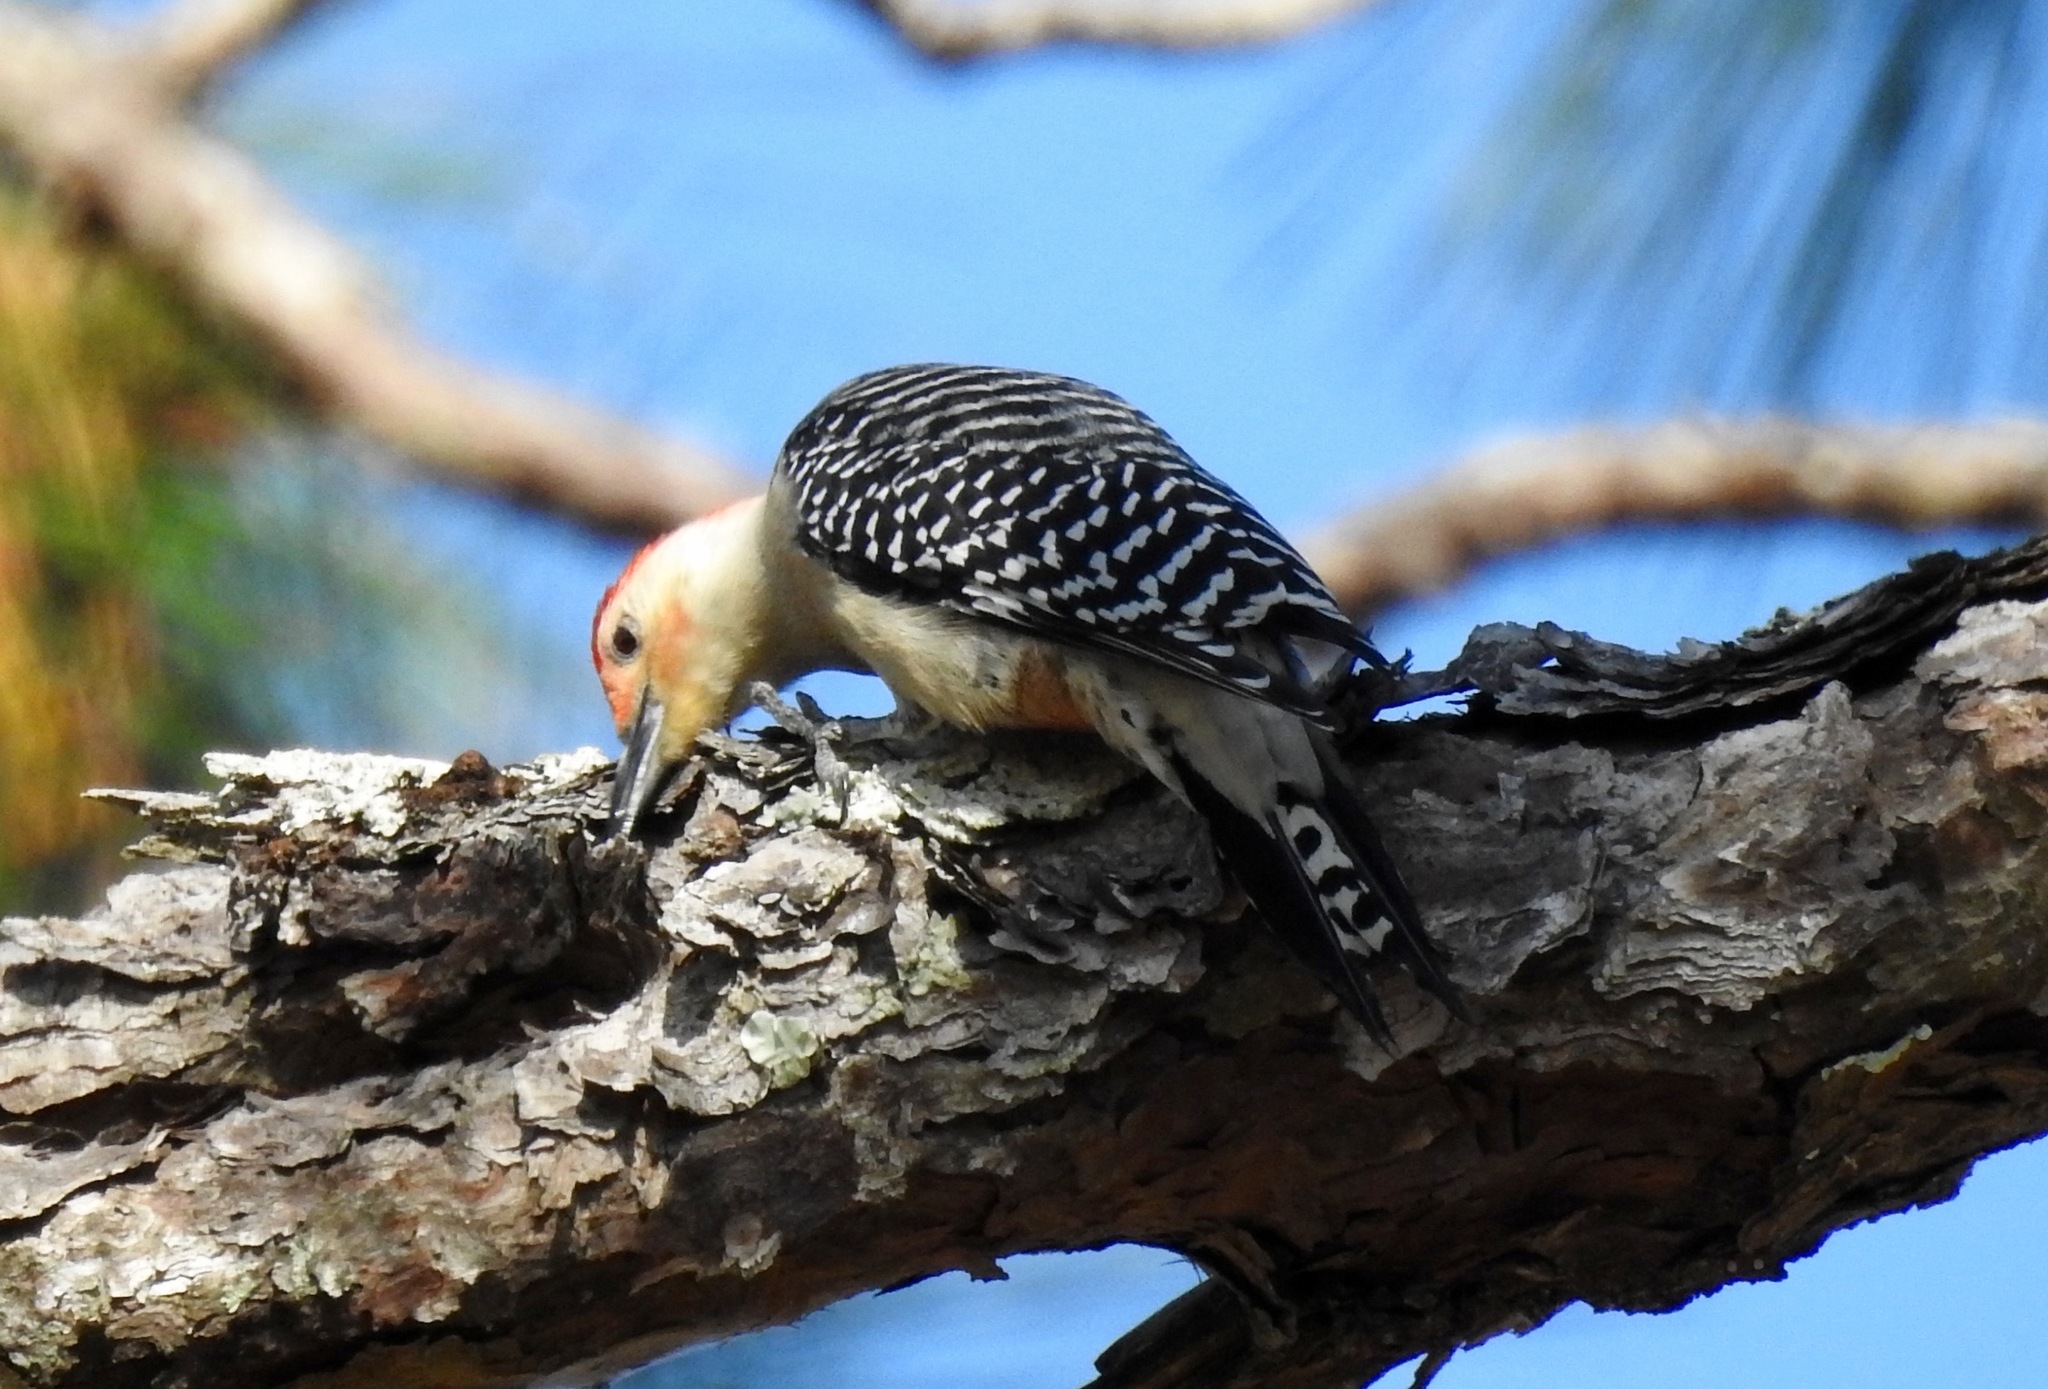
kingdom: Animalia
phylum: Chordata
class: Aves
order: Piciformes
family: Picidae
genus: Melanerpes
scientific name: Melanerpes carolinus
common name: Red-bellied woodpecker
